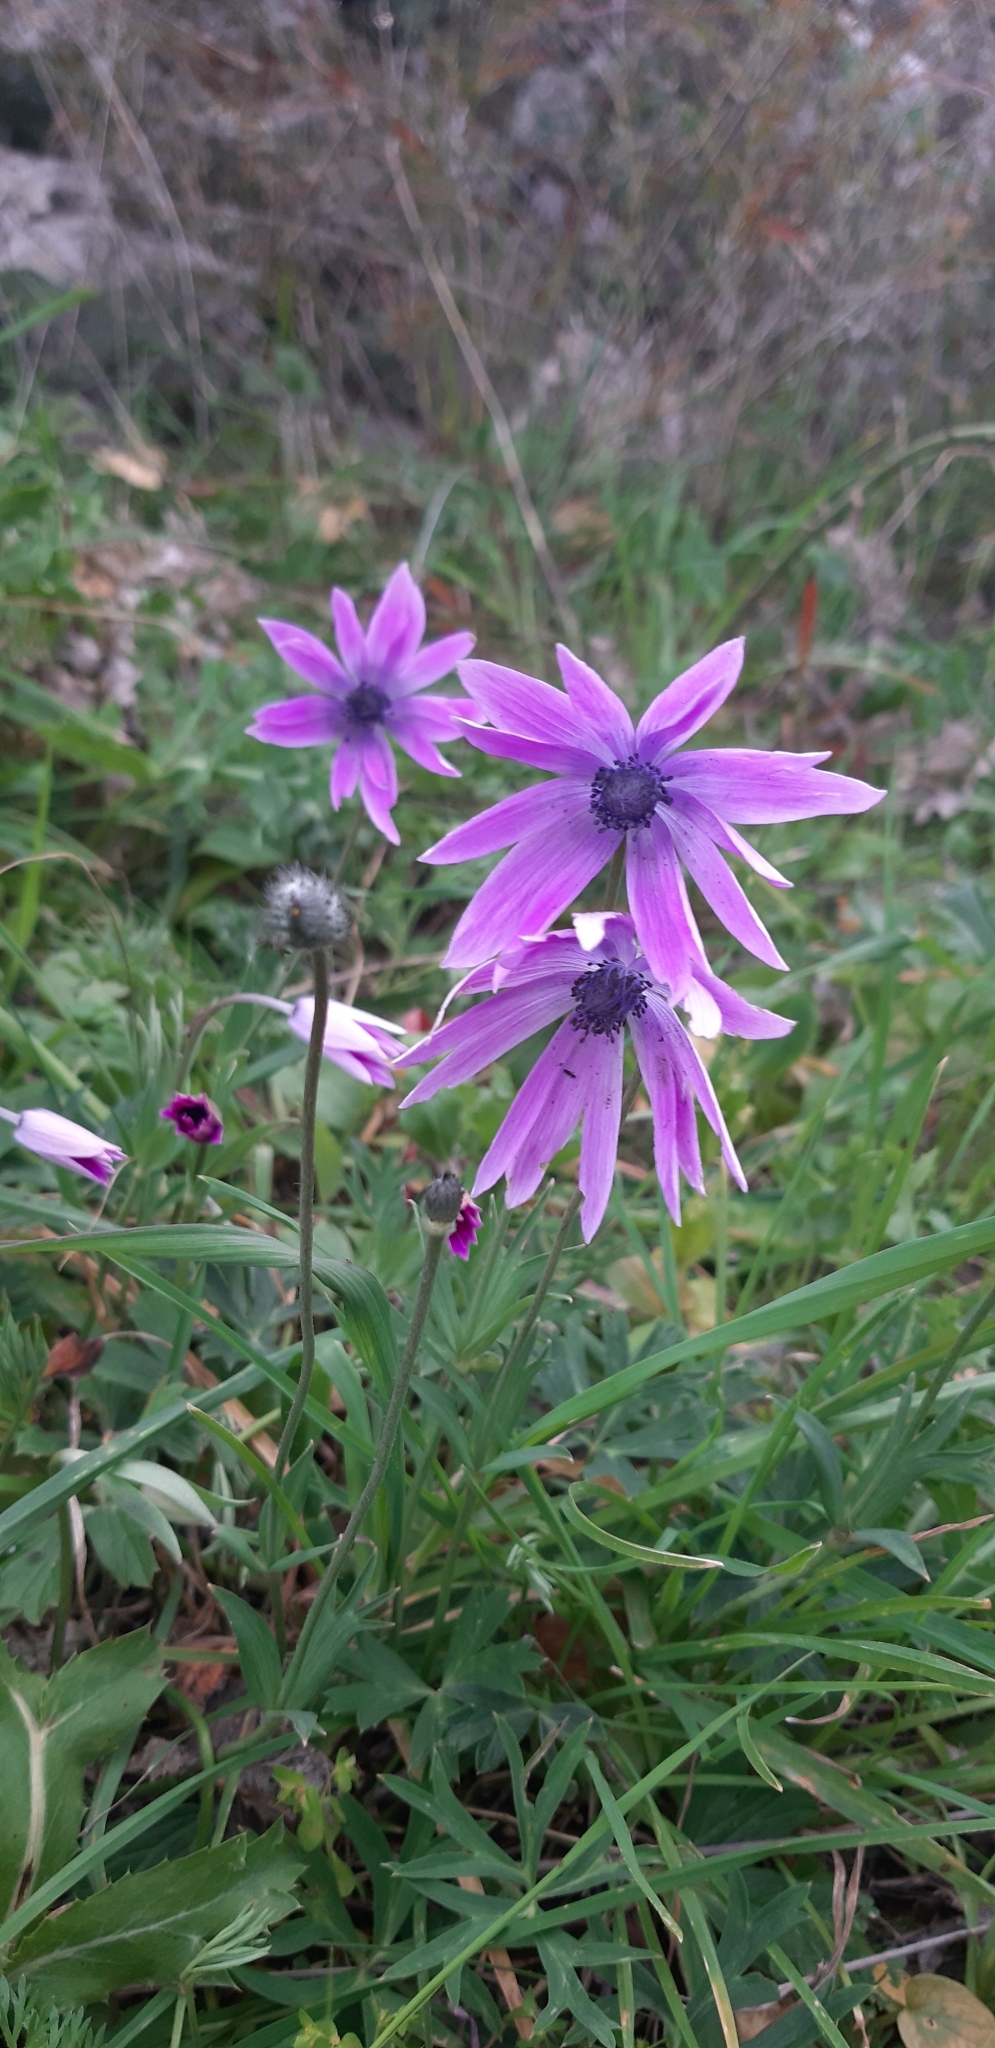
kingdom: Plantae
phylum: Tracheophyta
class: Magnoliopsida
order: Ranunculales
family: Ranunculaceae
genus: Anemone
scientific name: Anemone hortensis
